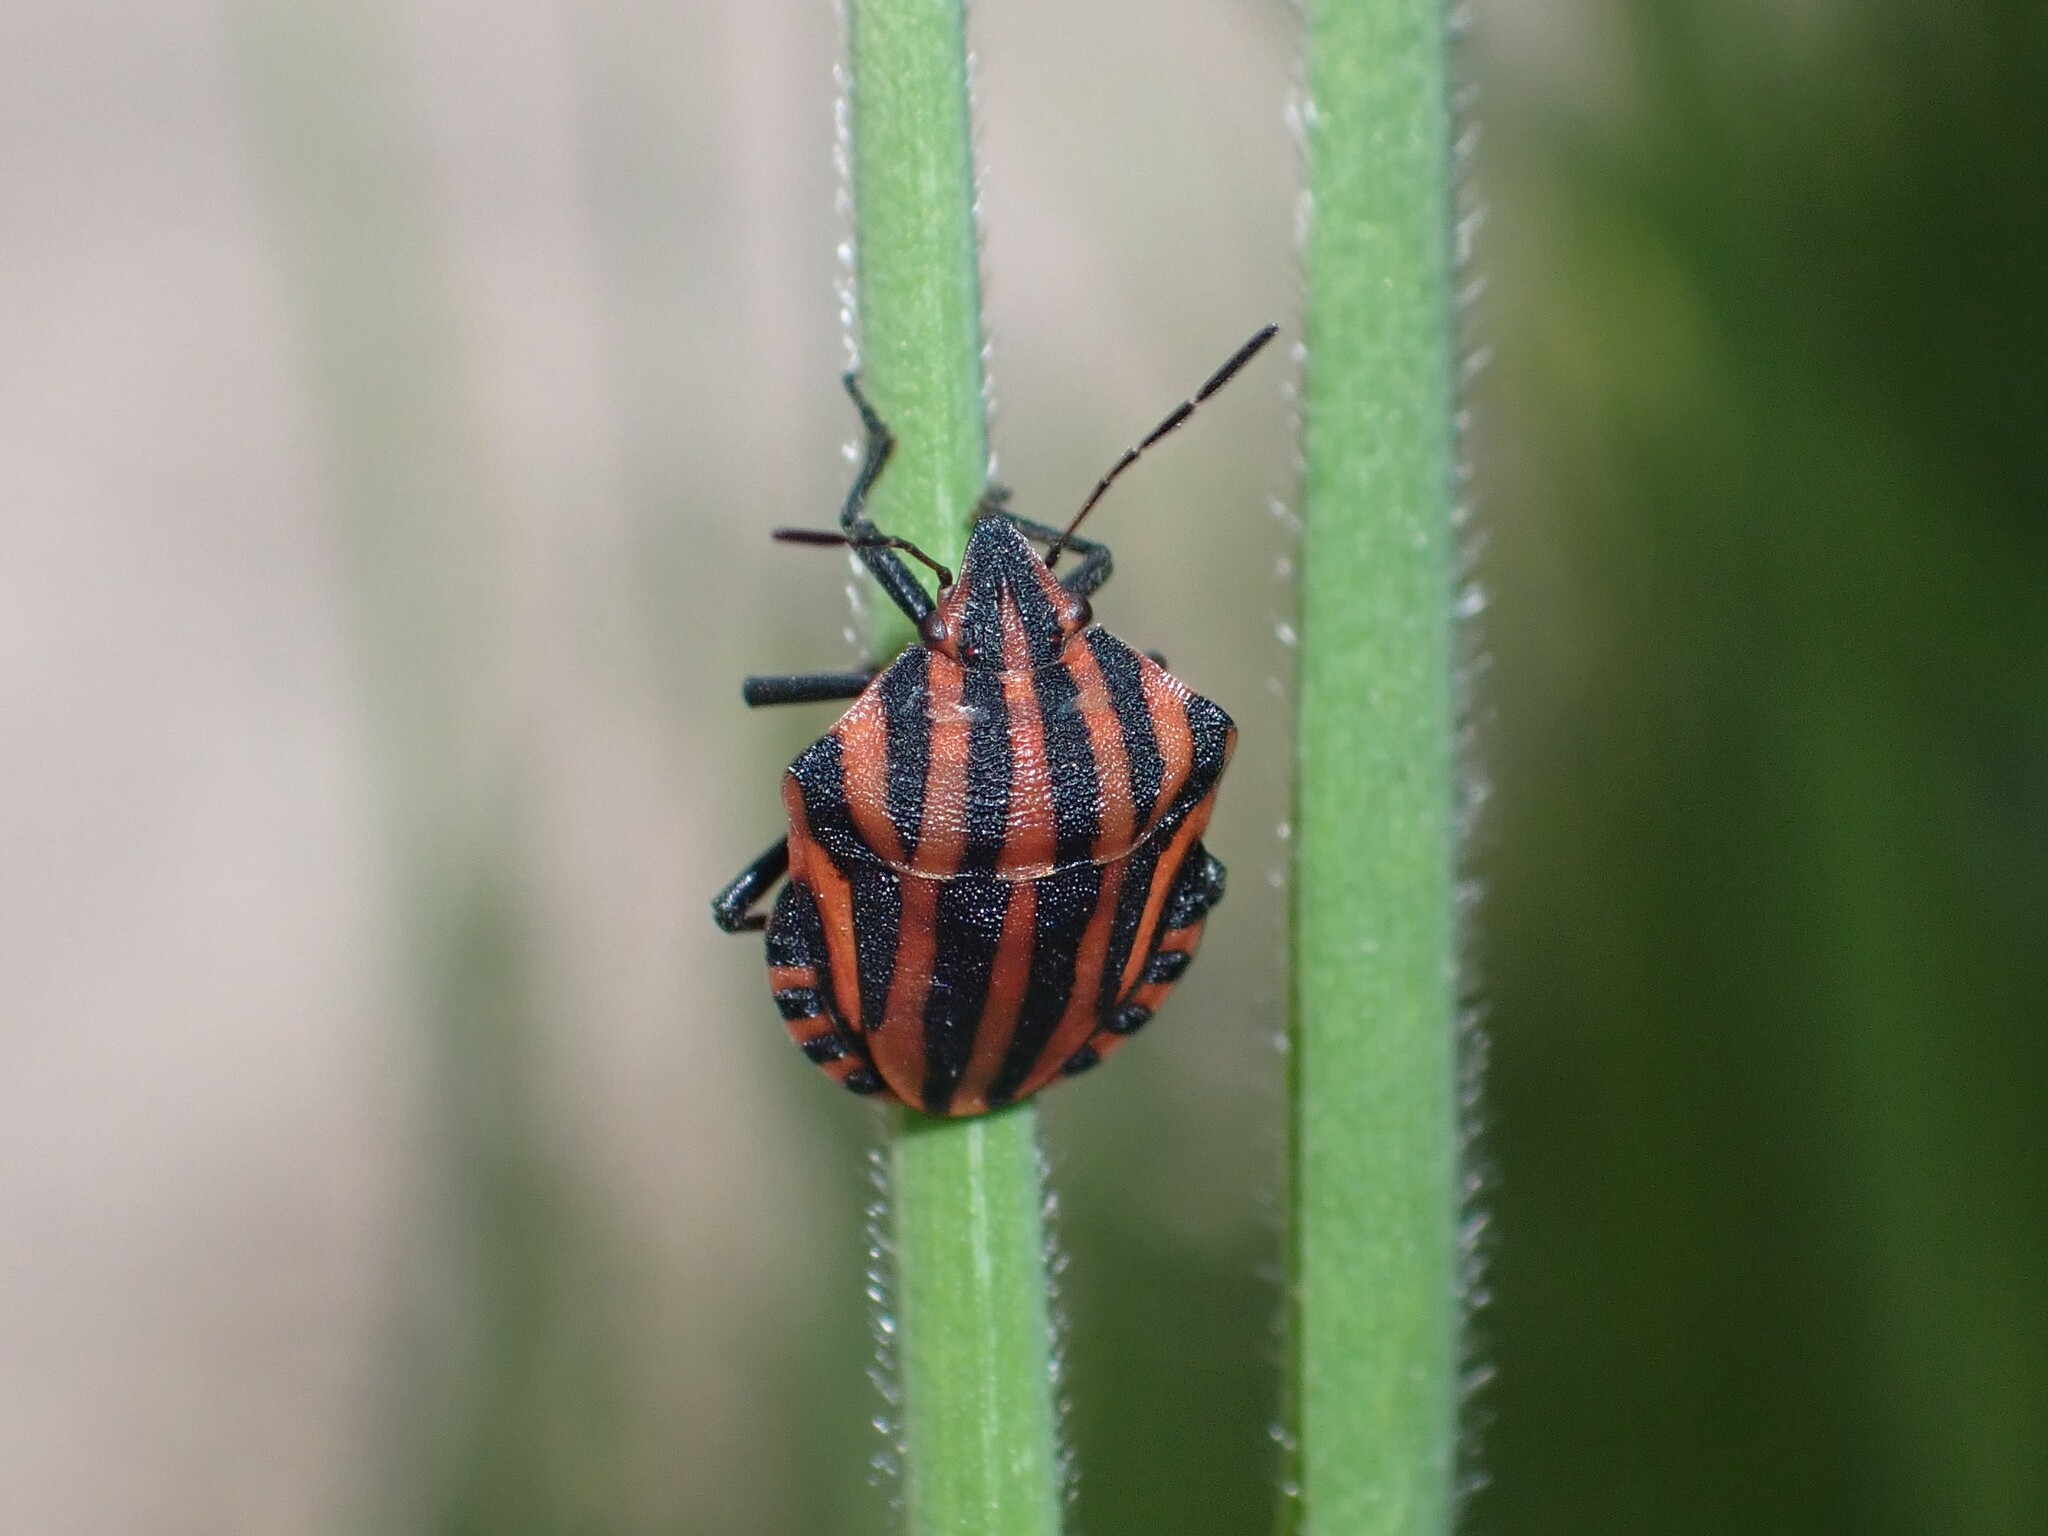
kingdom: Animalia
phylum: Arthropoda
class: Insecta
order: Hemiptera
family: Pentatomidae
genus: Graphosoma
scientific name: Graphosoma italicum
